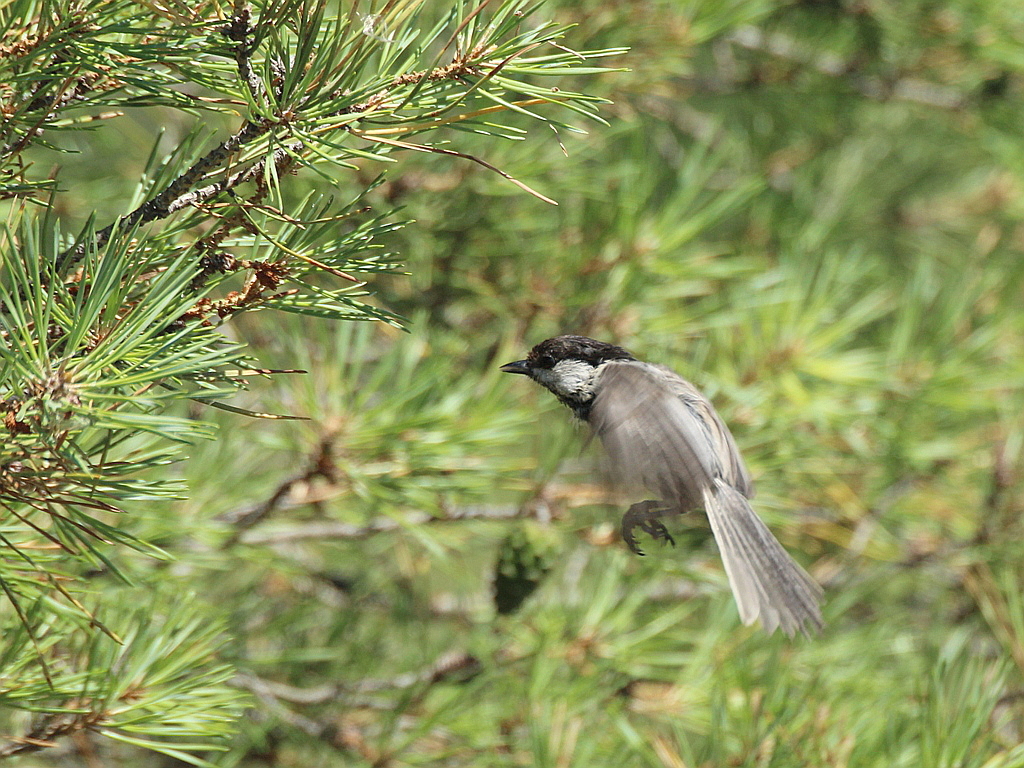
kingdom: Animalia
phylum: Chordata
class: Aves
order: Passeriformes
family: Paridae
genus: Poecile
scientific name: Poecile montanus
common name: Willow tit
